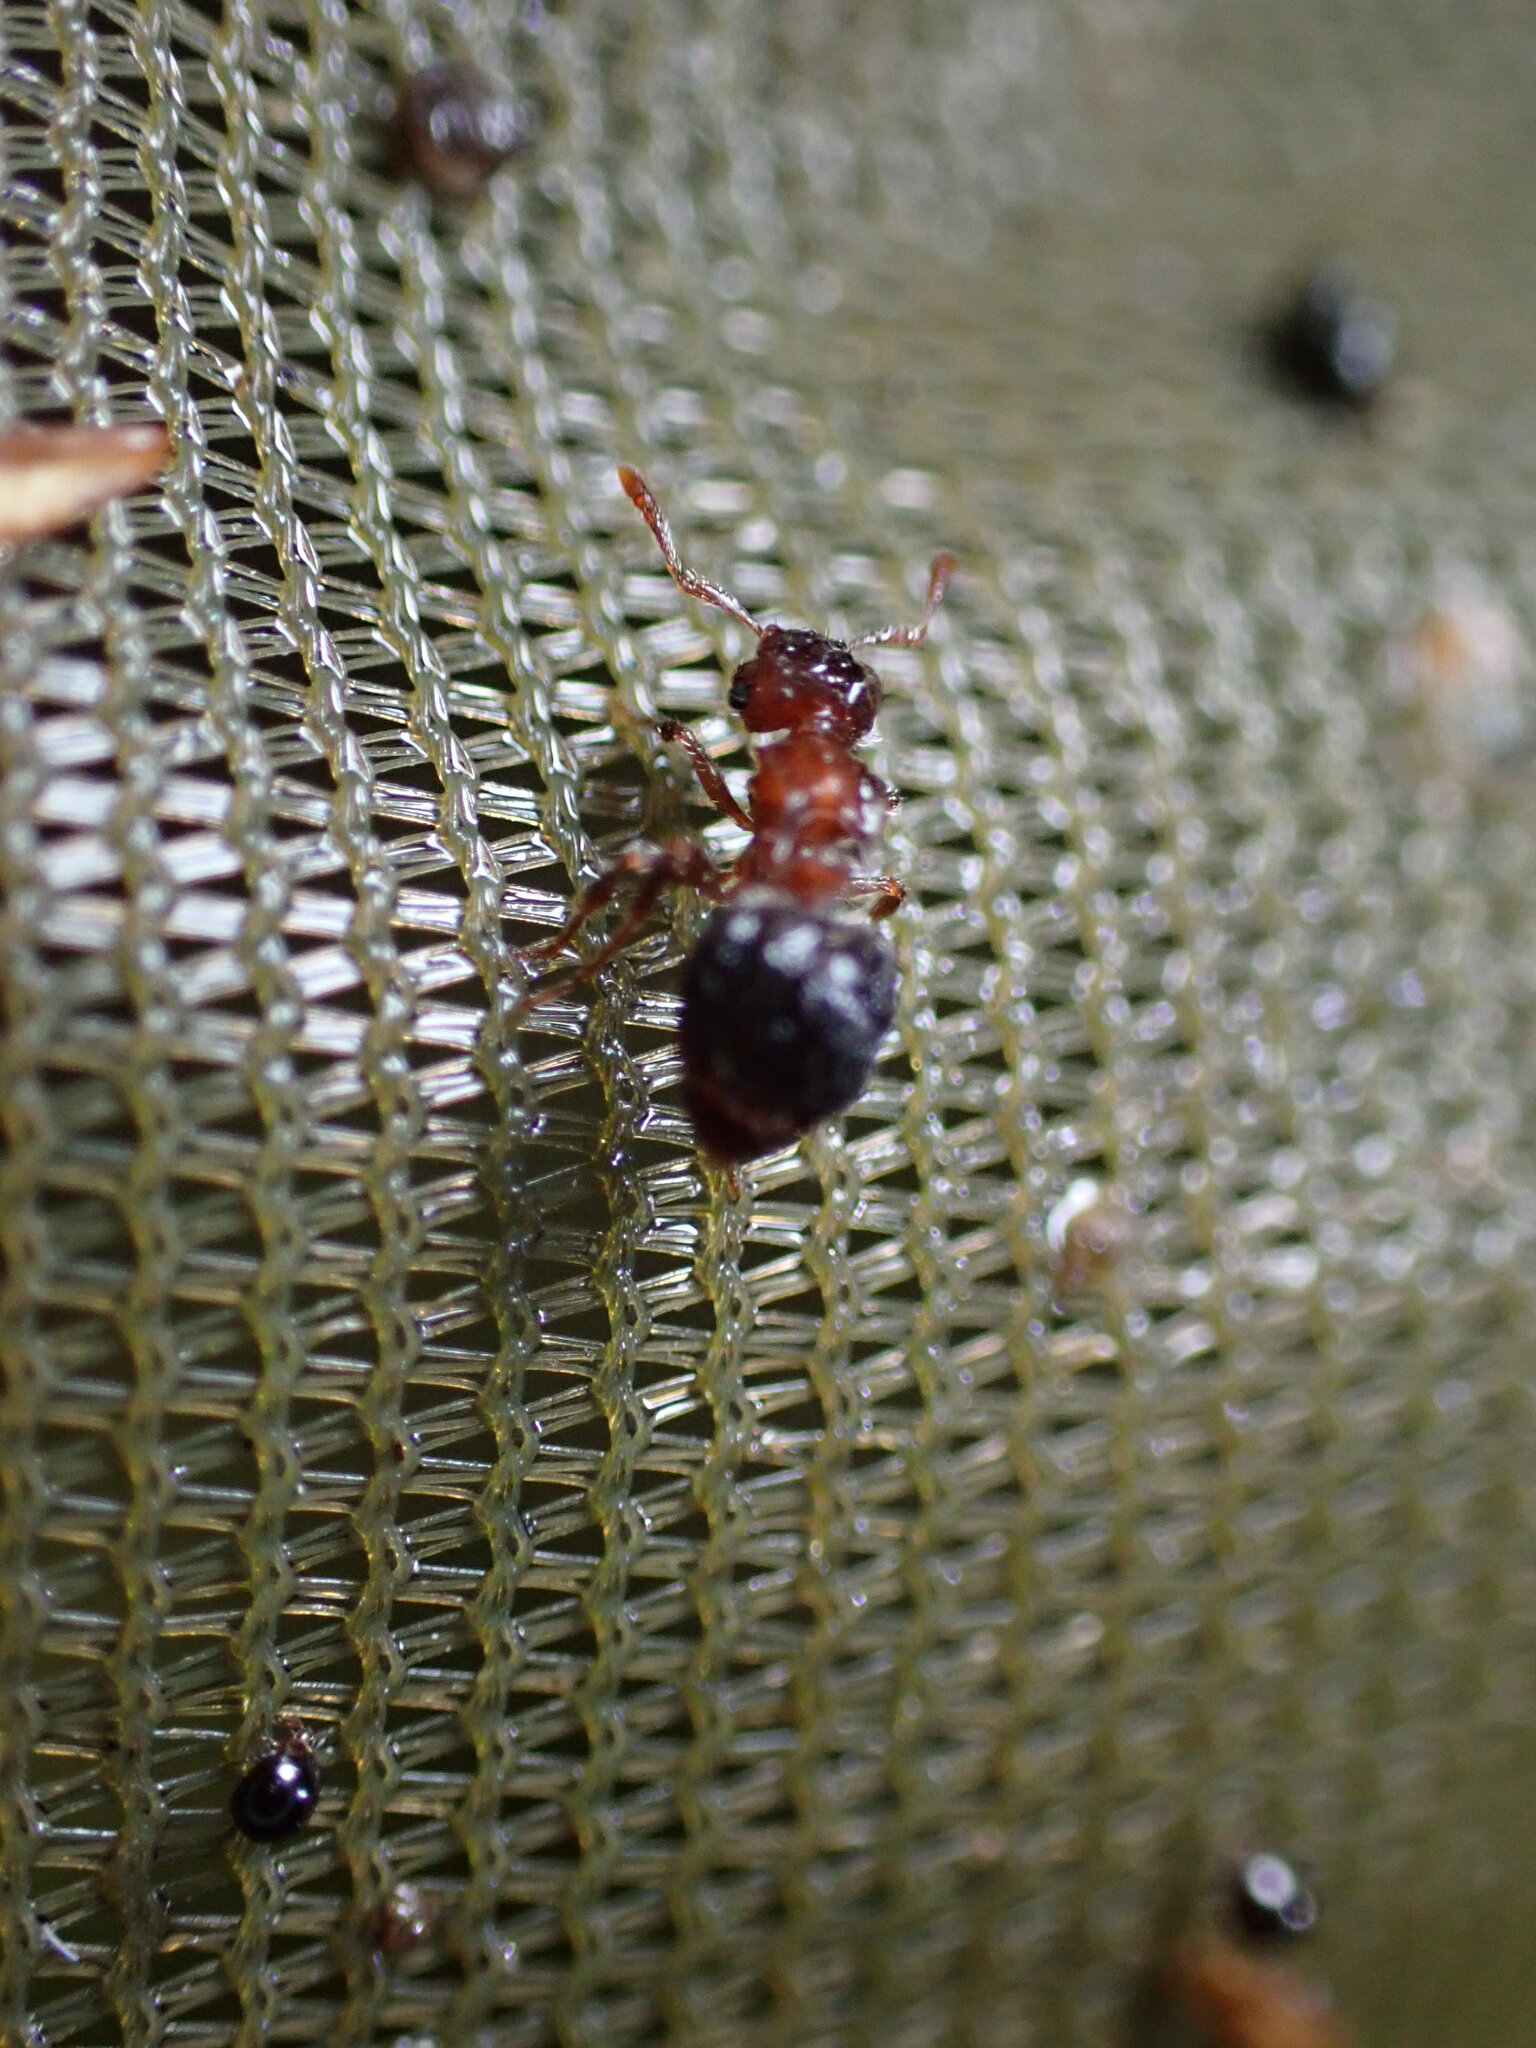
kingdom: Animalia
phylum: Arthropoda
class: Insecta
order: Hymenoptera
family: Formicidae
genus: Meranoplus
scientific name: Meranoplus bicolor
